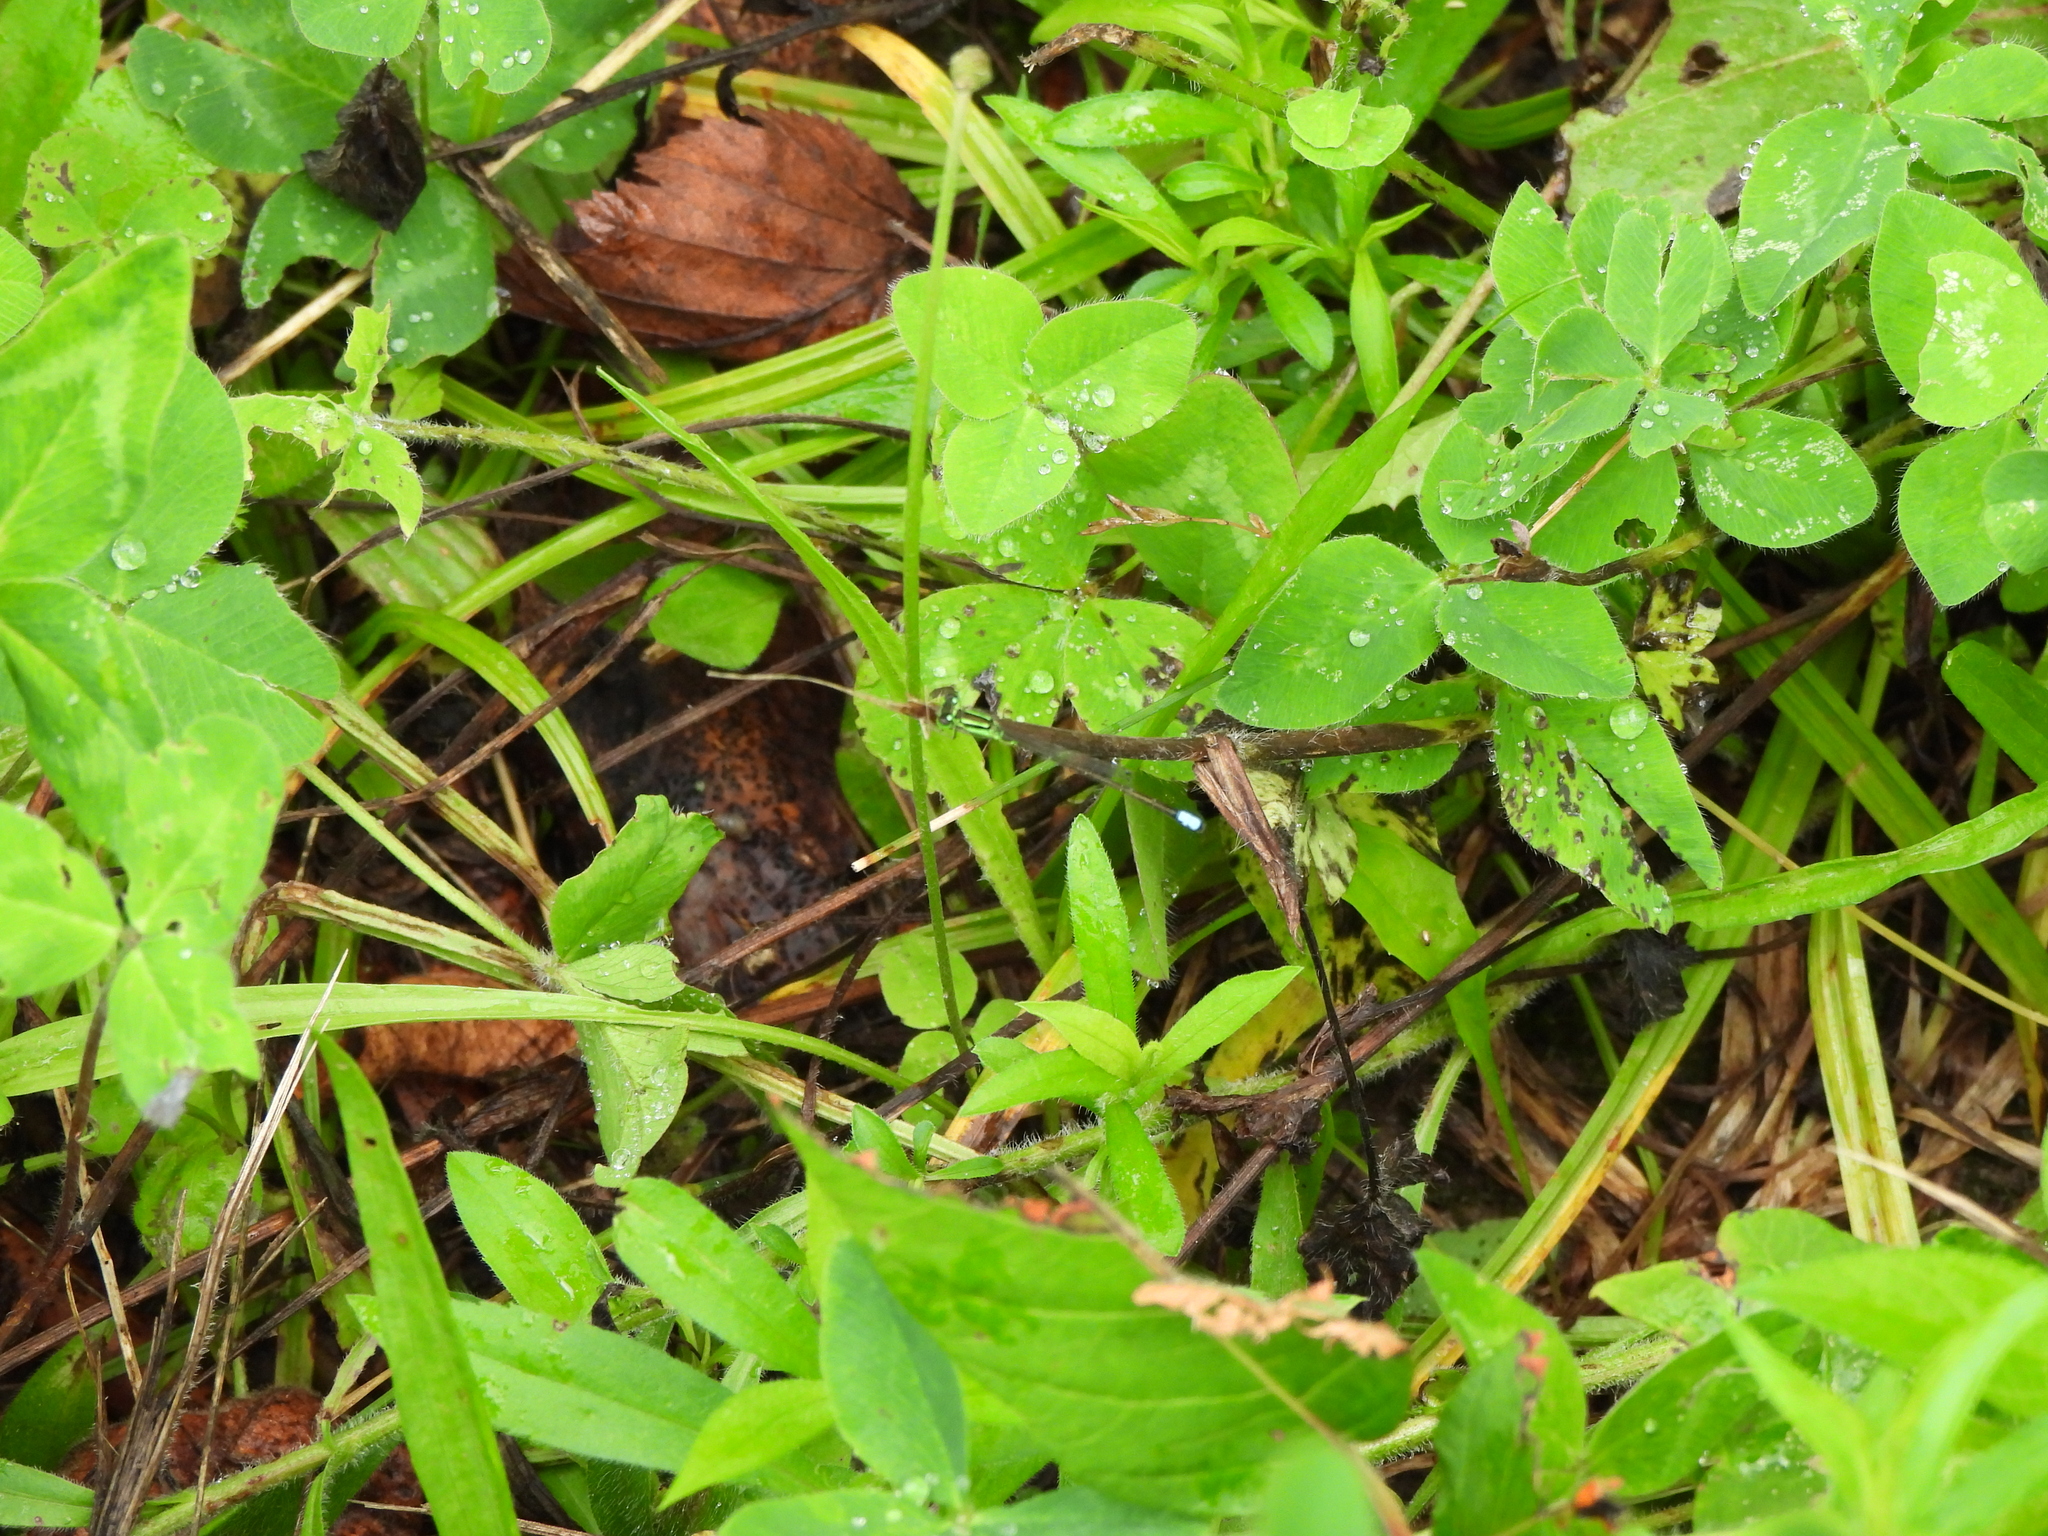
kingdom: Animalia
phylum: Arthropoda
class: Insecta
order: Odonata
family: Coenagrionidae
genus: Ischnura
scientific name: Ischnura verticalis
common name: Eastern forktail
